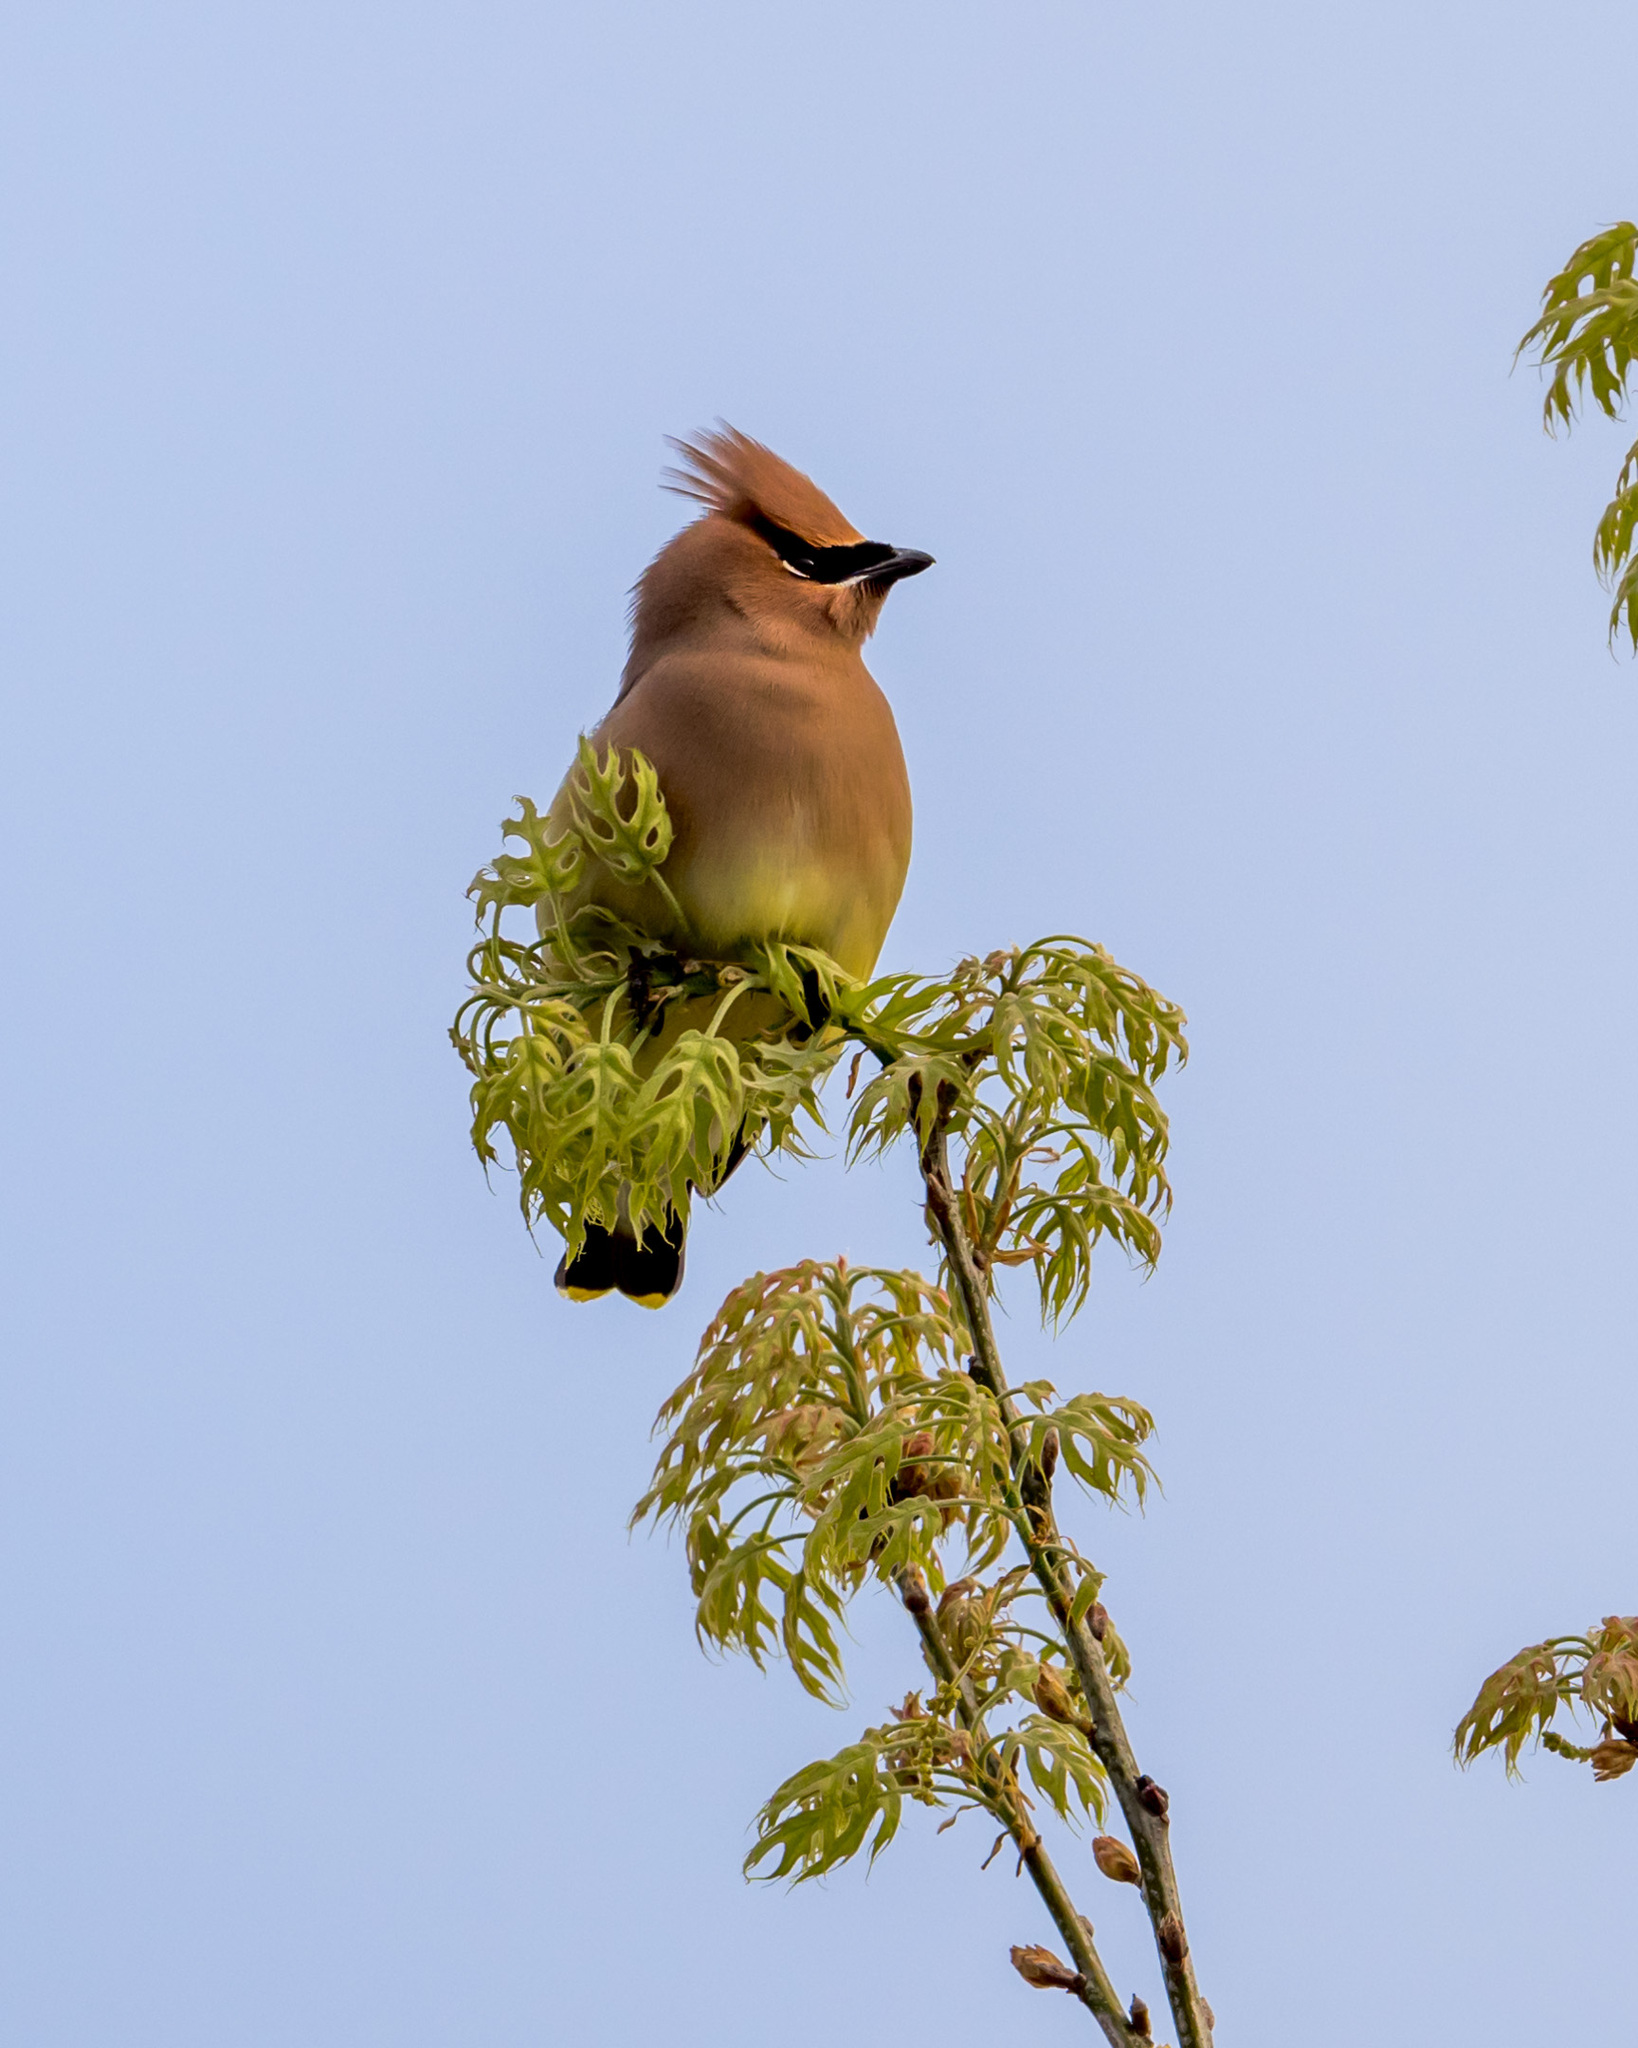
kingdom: Animalia
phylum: Chordata
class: Aves
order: Passeriformes
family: Bombycillidae
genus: Bombycilla
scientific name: Bombycilla cedrorum
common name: Cedar waxwing
